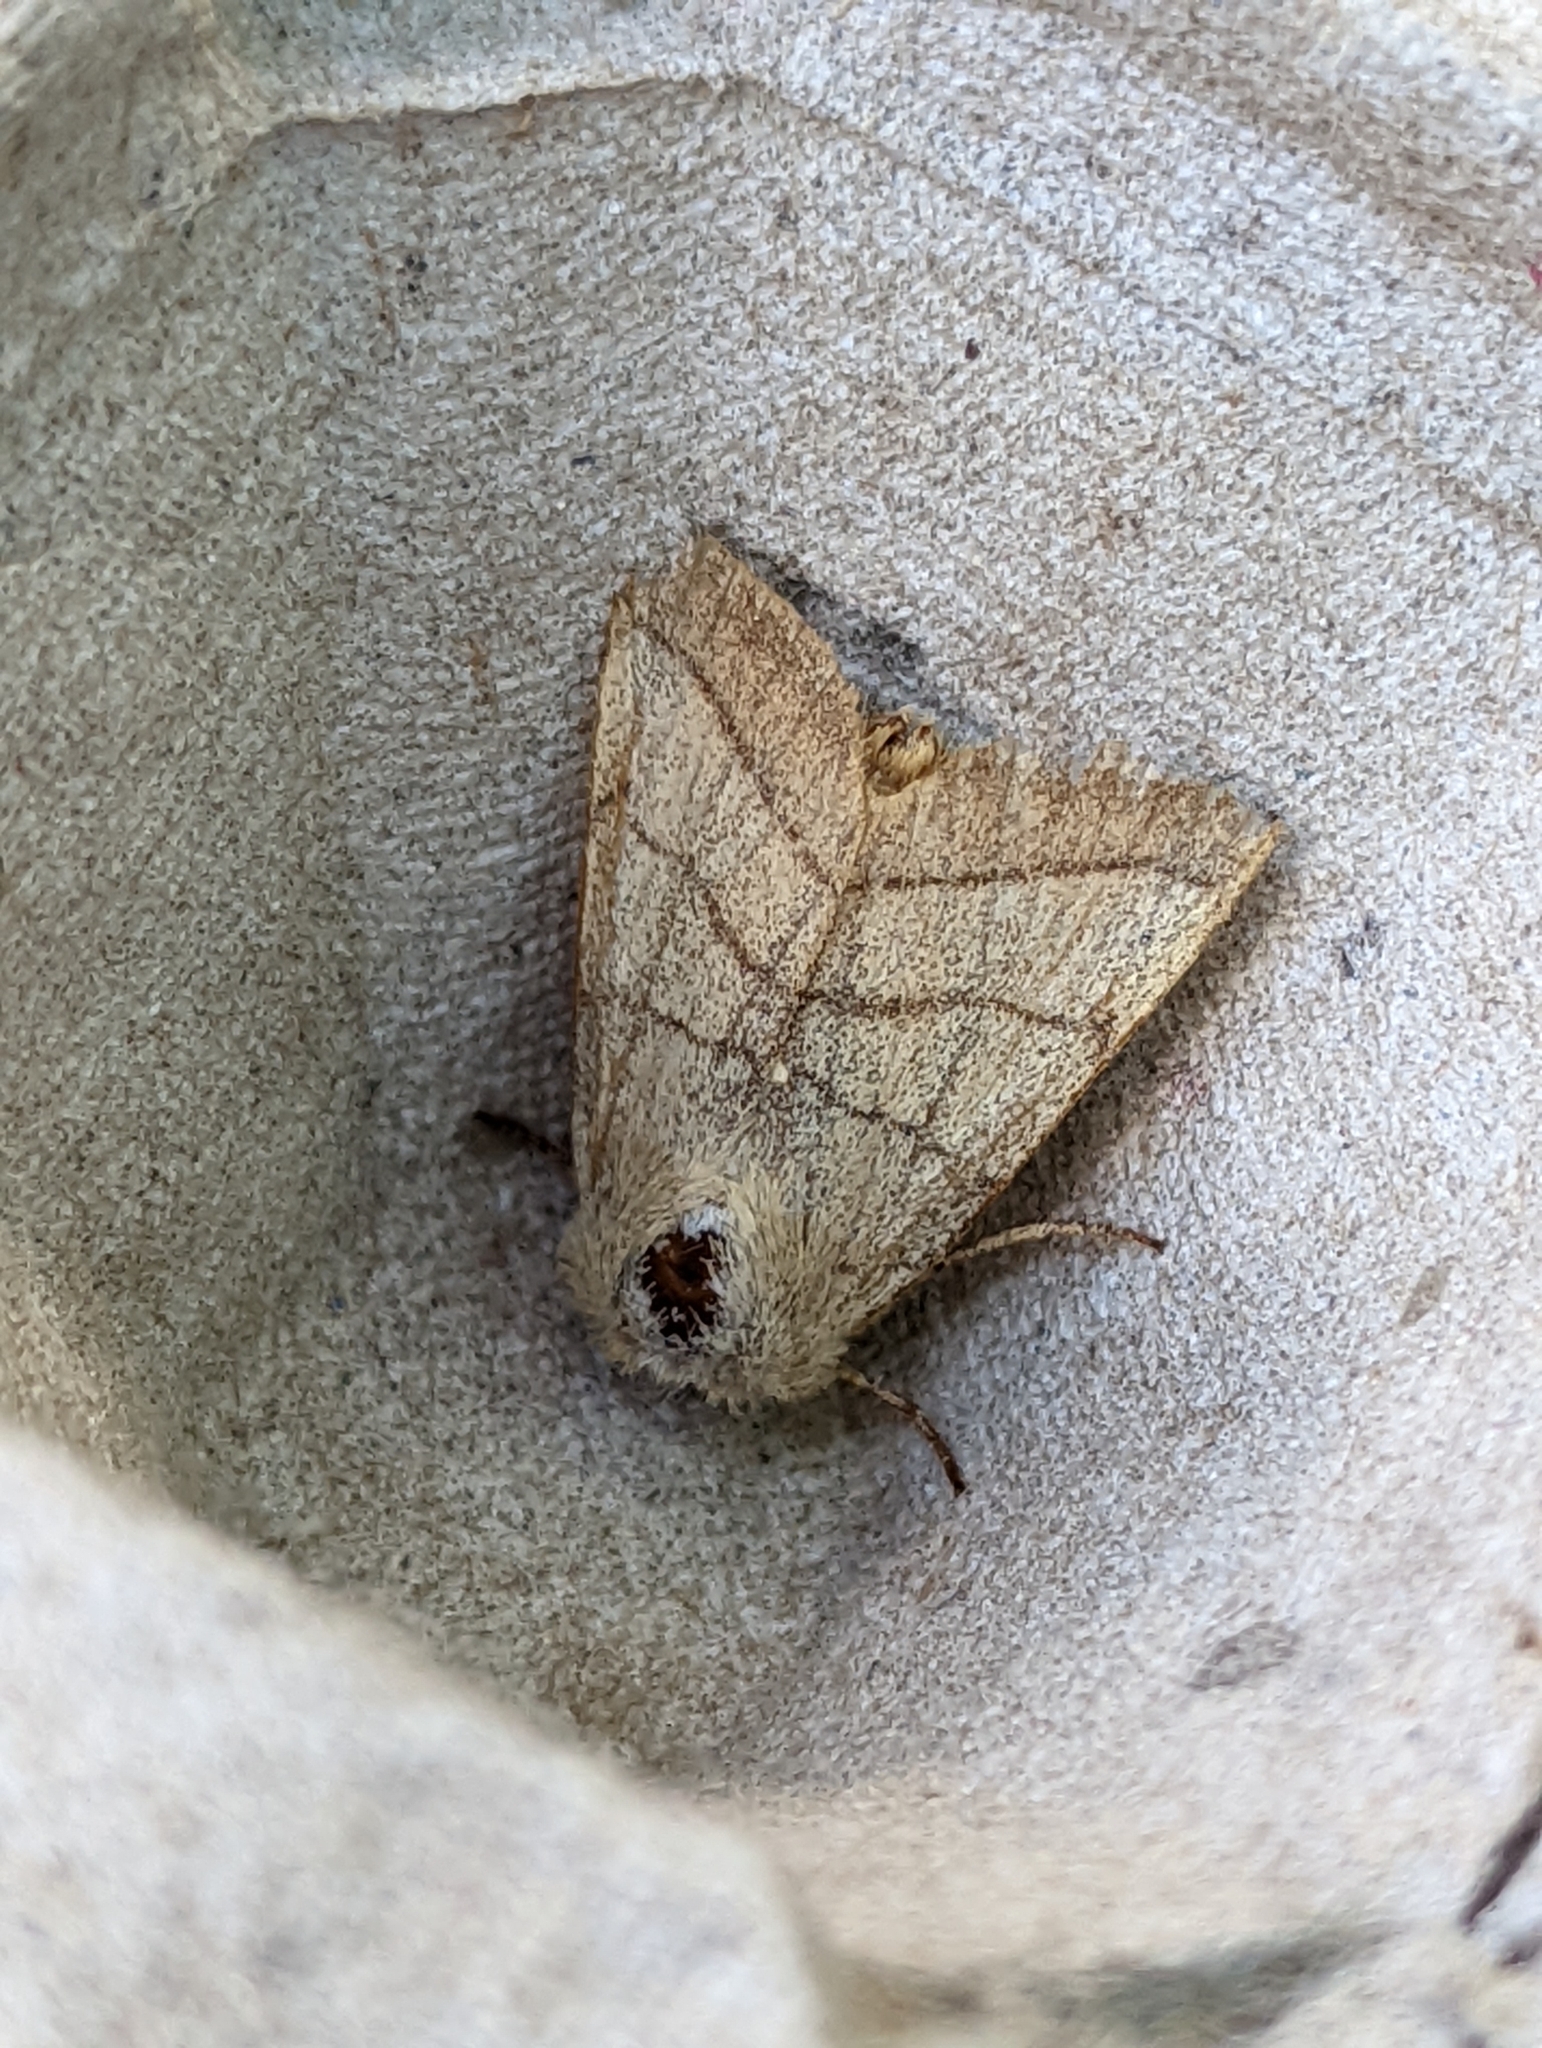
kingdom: Animalia
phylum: Arthropoda
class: Insecta
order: Lepidoptera
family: Noctuidae
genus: Charanyca
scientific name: Charanyca trigrammica
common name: Treble lines
